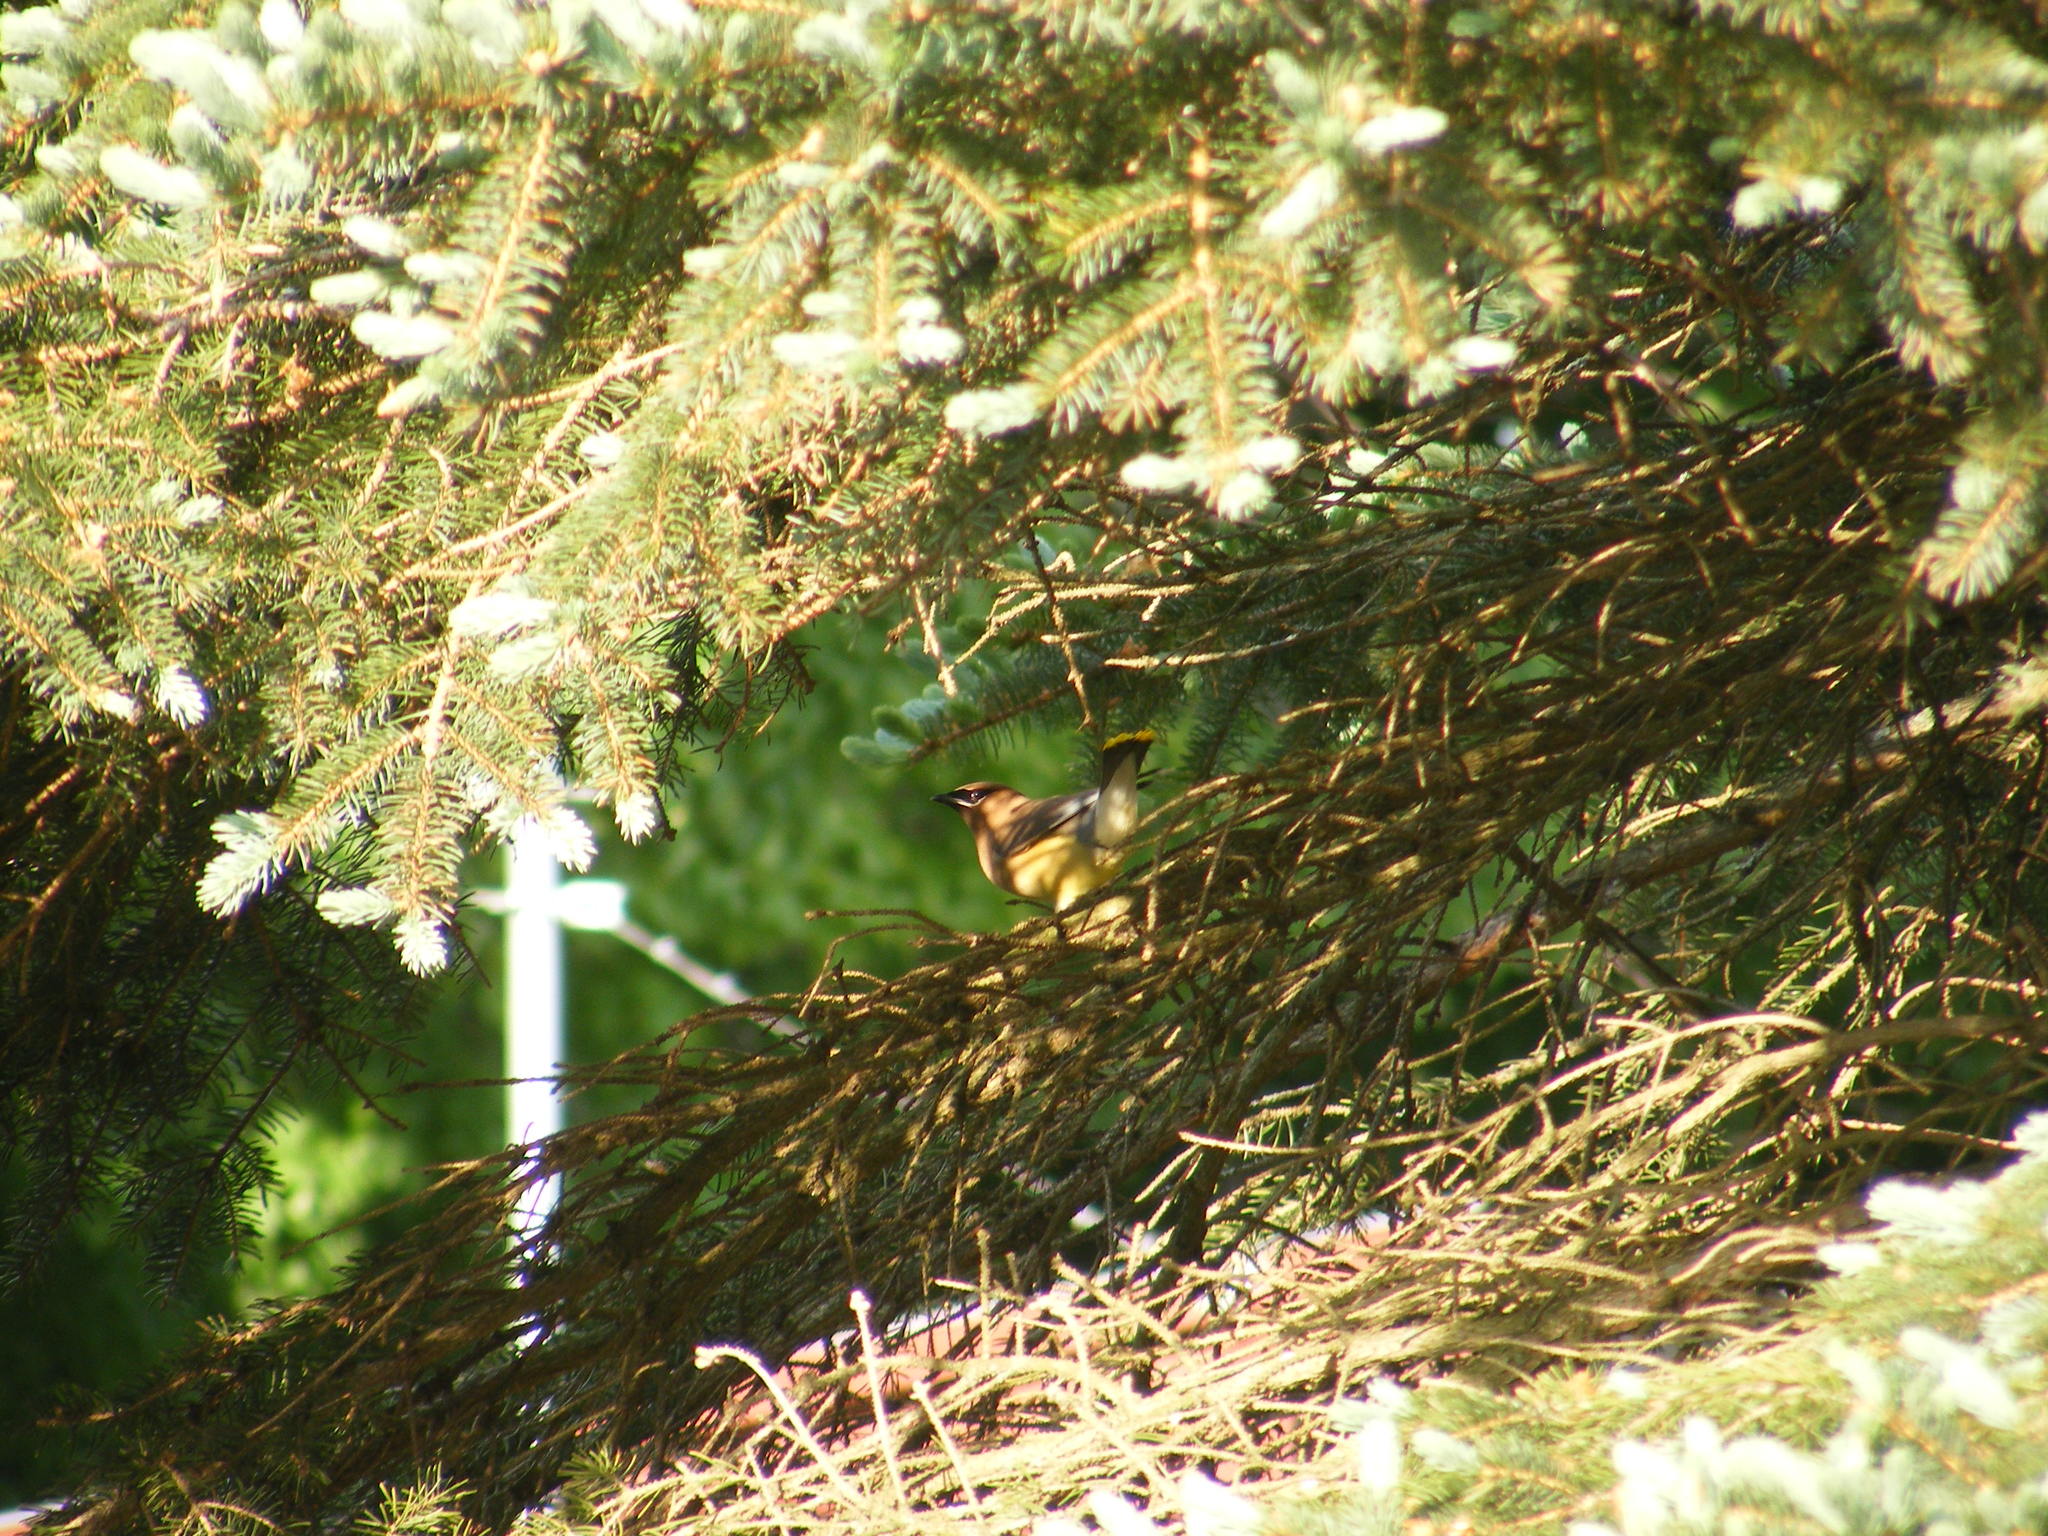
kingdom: Animalia
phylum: Chordata
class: Aves
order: Passeriformes
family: Bombycillidae
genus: Bombycilla
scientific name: Bombycilla cedrorum
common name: Cedar waxwing
